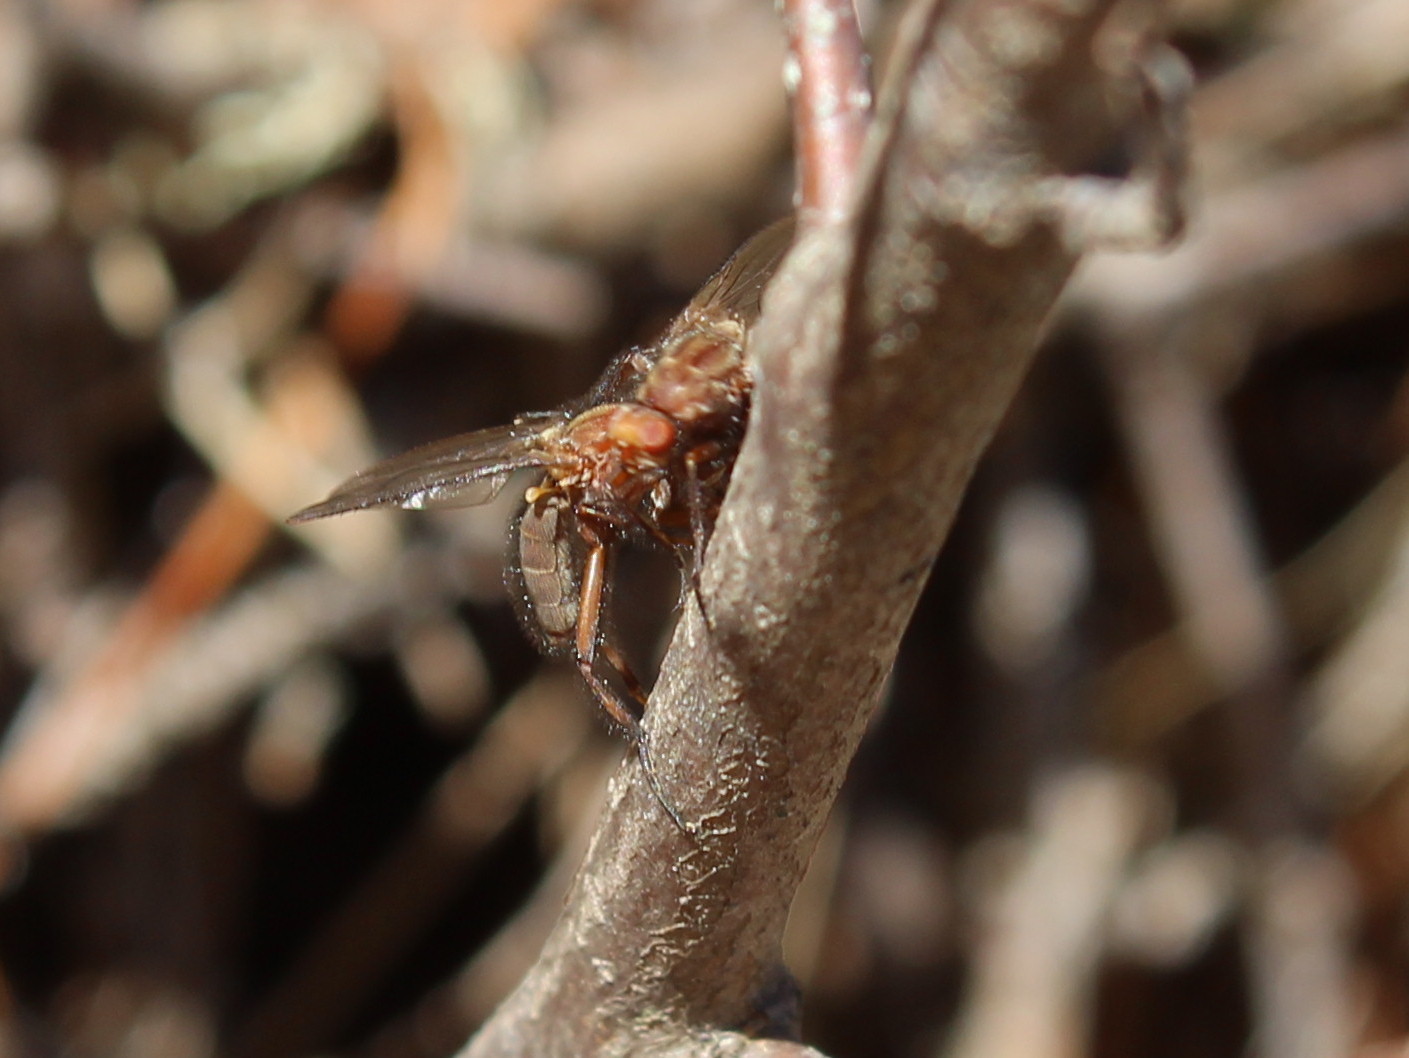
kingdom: Animalia
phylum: Arthropoda
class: Insecta
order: Diptera
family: Heleomyzidae
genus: Scoliocentra
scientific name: Scoliocentra tincta
